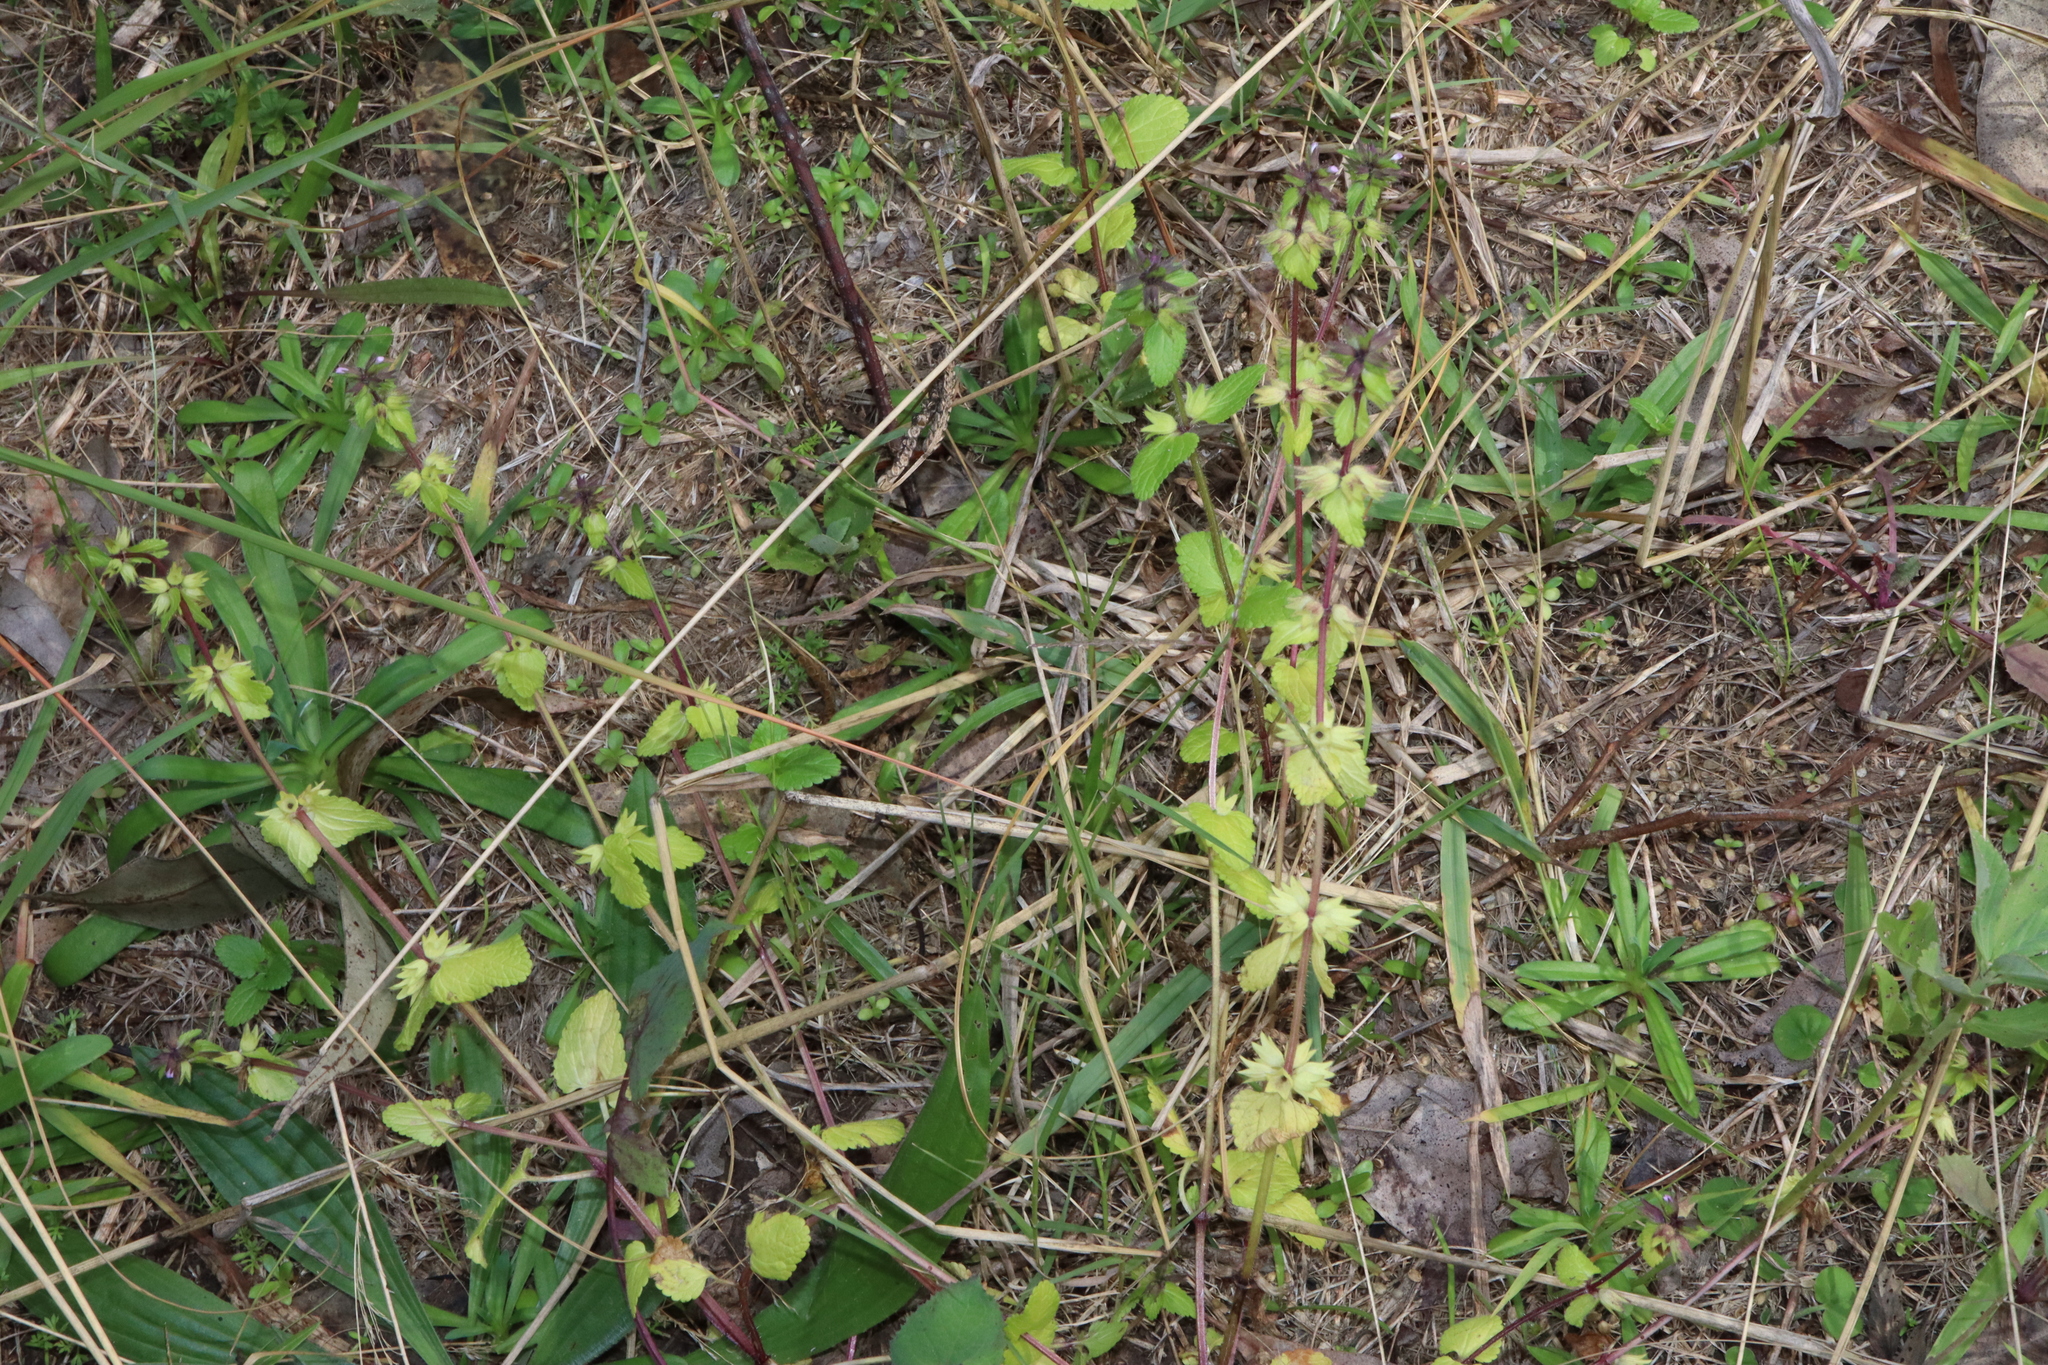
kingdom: Plantae
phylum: Tracheophyta
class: Magnoliopsida
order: Lamiales
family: Lamiaceae
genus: Stachys
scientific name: Stachys arvensis
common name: Field woundwort
